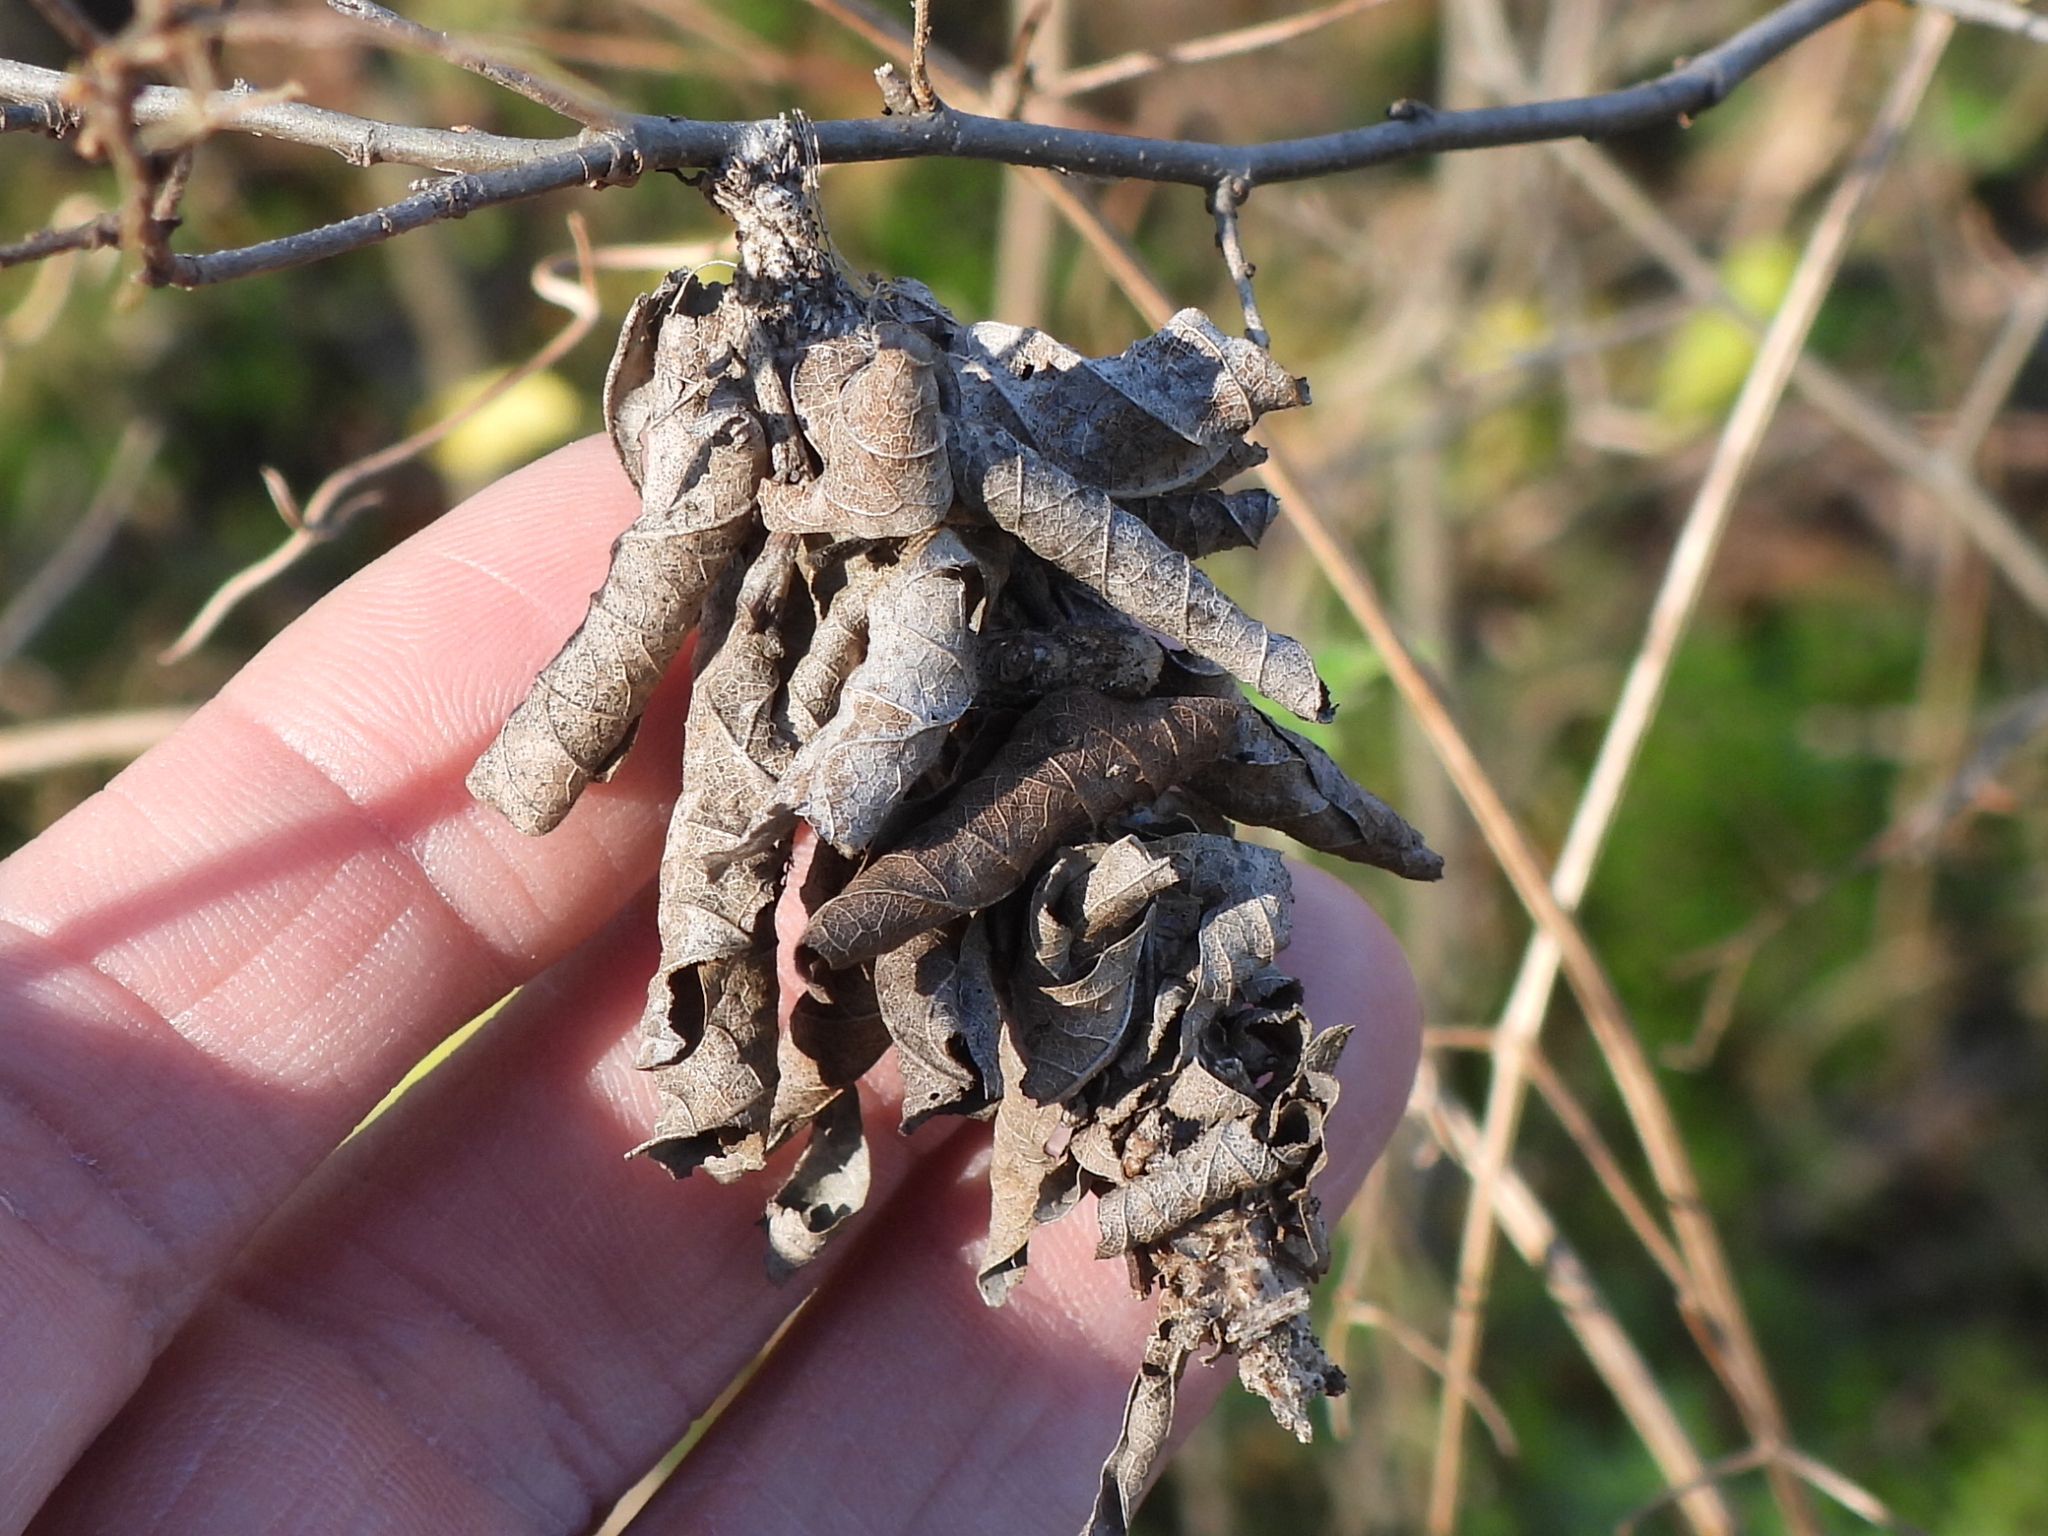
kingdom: Animalia
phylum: Arthropoda
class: Insecta
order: Lepidoptera
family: Psychidae
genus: Oiketicus
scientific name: Oiketicus
